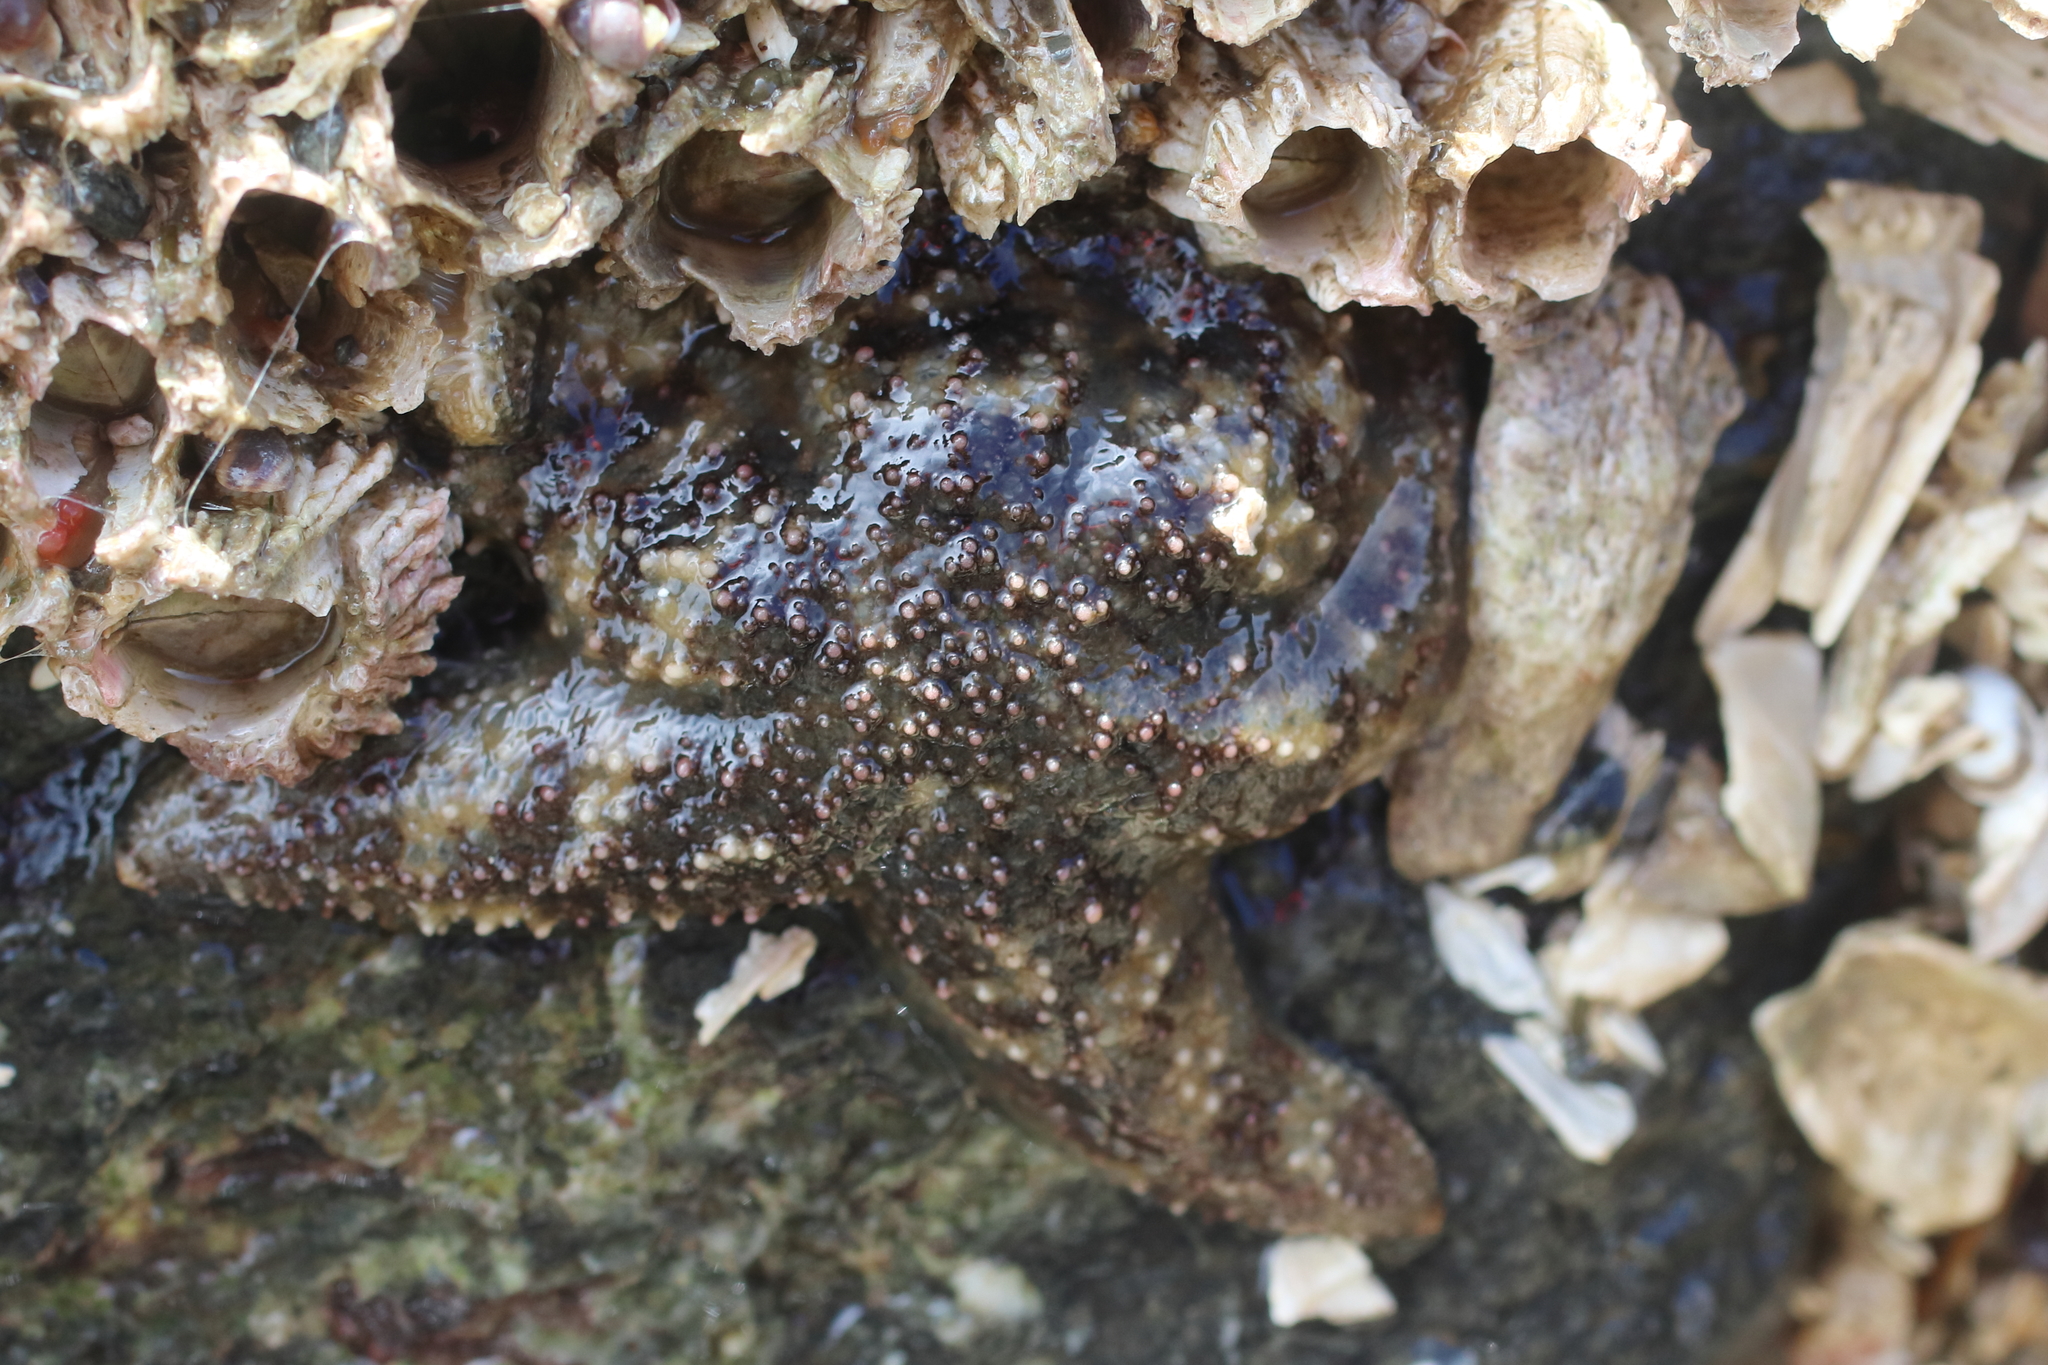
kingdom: Animalia
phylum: Echinodermata
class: Asteroidea
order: Forcipulatida
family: Asteriidae
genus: Leptasterias
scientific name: Leptasterias
